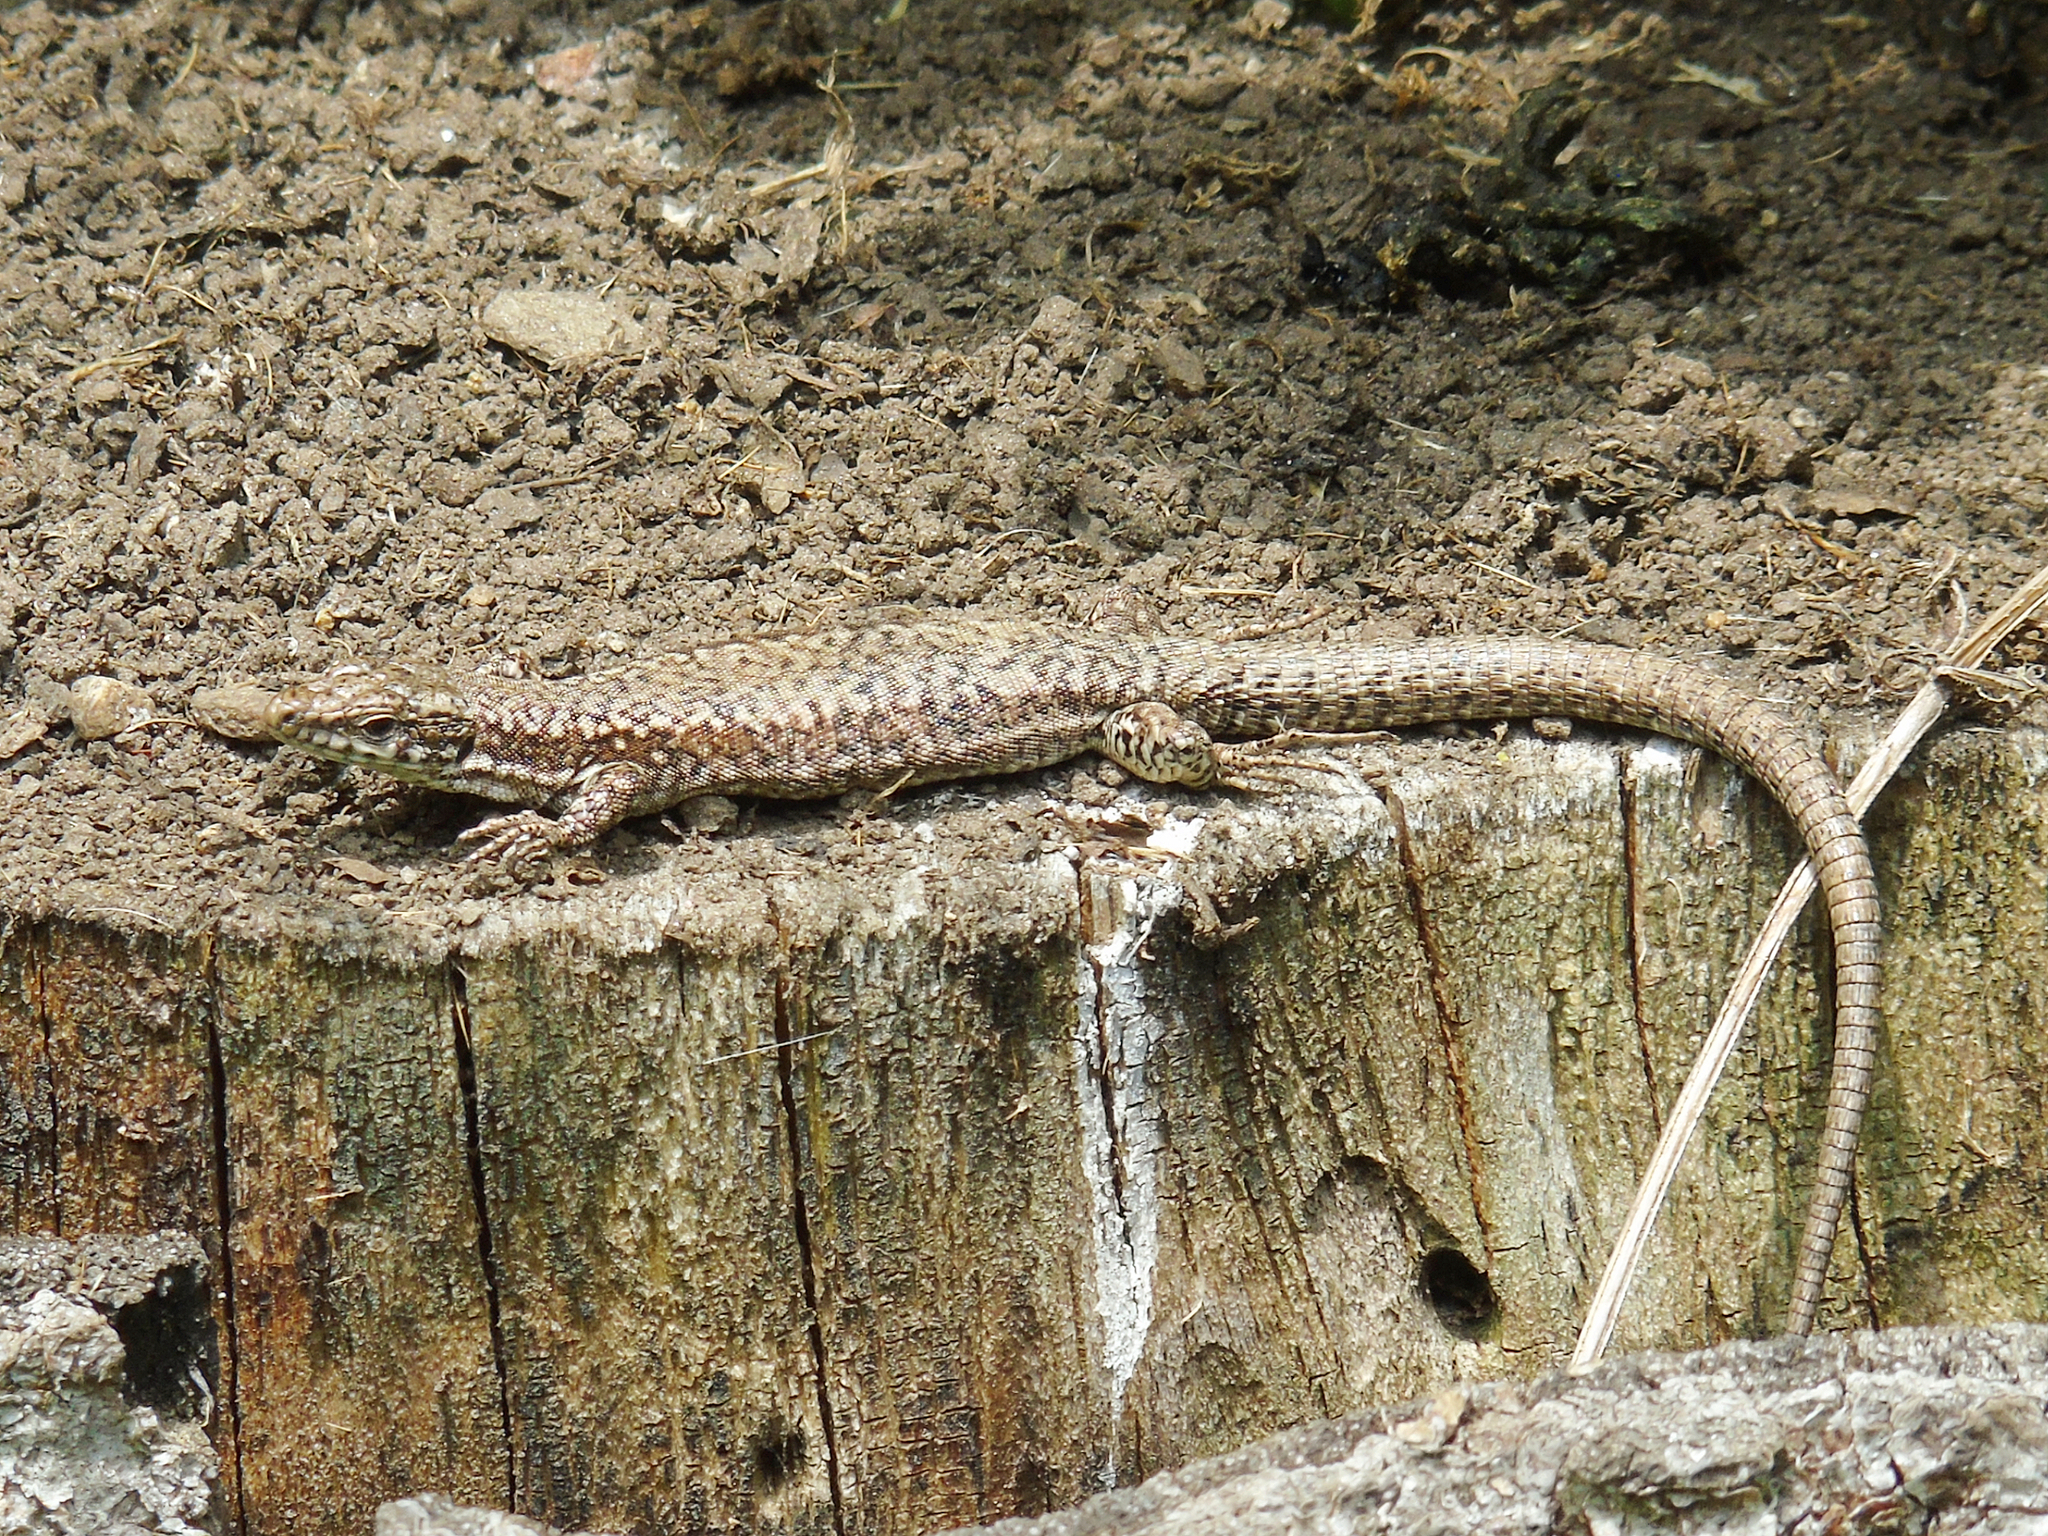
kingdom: Animalia
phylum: Chordata
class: Squamata
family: Lacertidae
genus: Podarcis
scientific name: Podarcis muralis
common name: Common wall lizard
